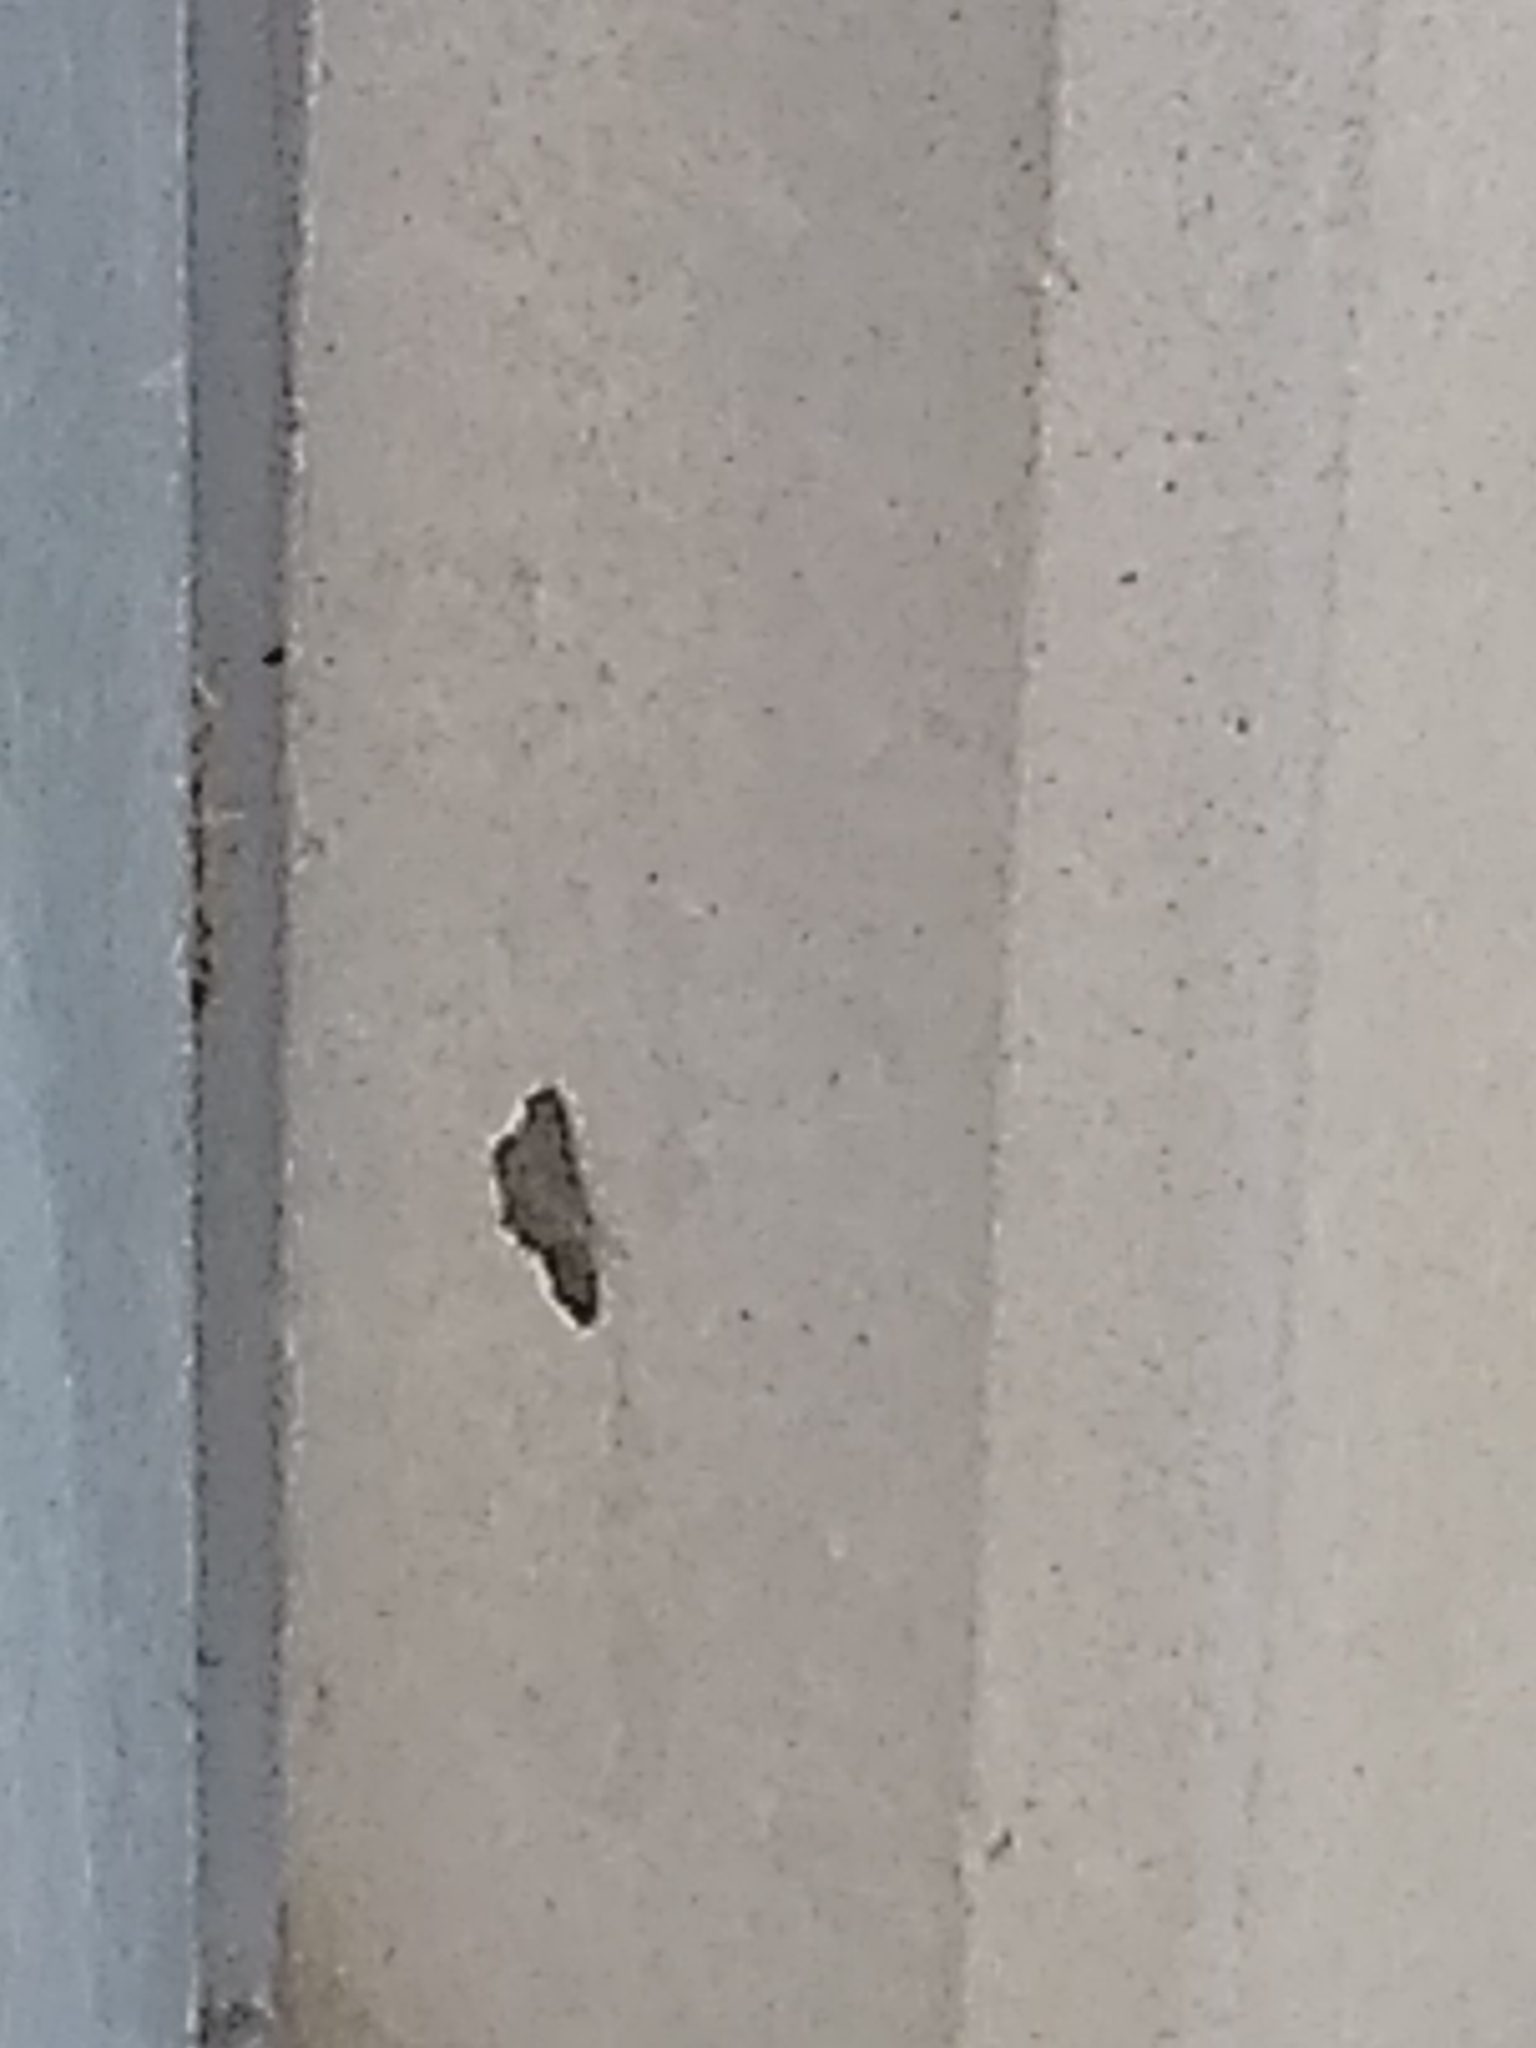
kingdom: Animalia
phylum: Arthropoda
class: Insecta
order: Lepidoptera
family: Geometridae
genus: Lambdina
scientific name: Lambdina fiscellaria
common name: Hemlock looper
